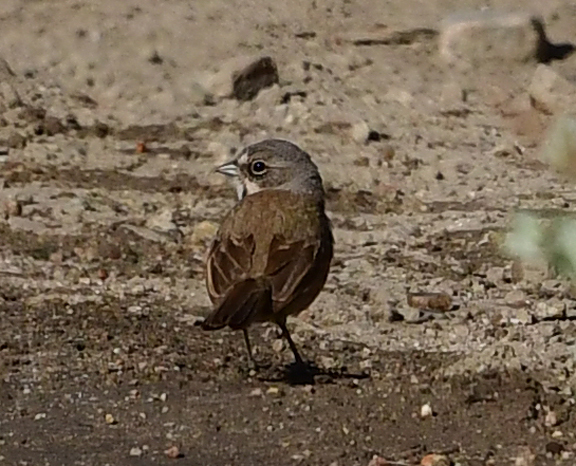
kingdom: Animalia
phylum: Chordata
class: Aves
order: Passeriformes
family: Passerellidae
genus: Artemisiospiza
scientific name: Artemisiospiza belli
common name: Bell's sparrow
